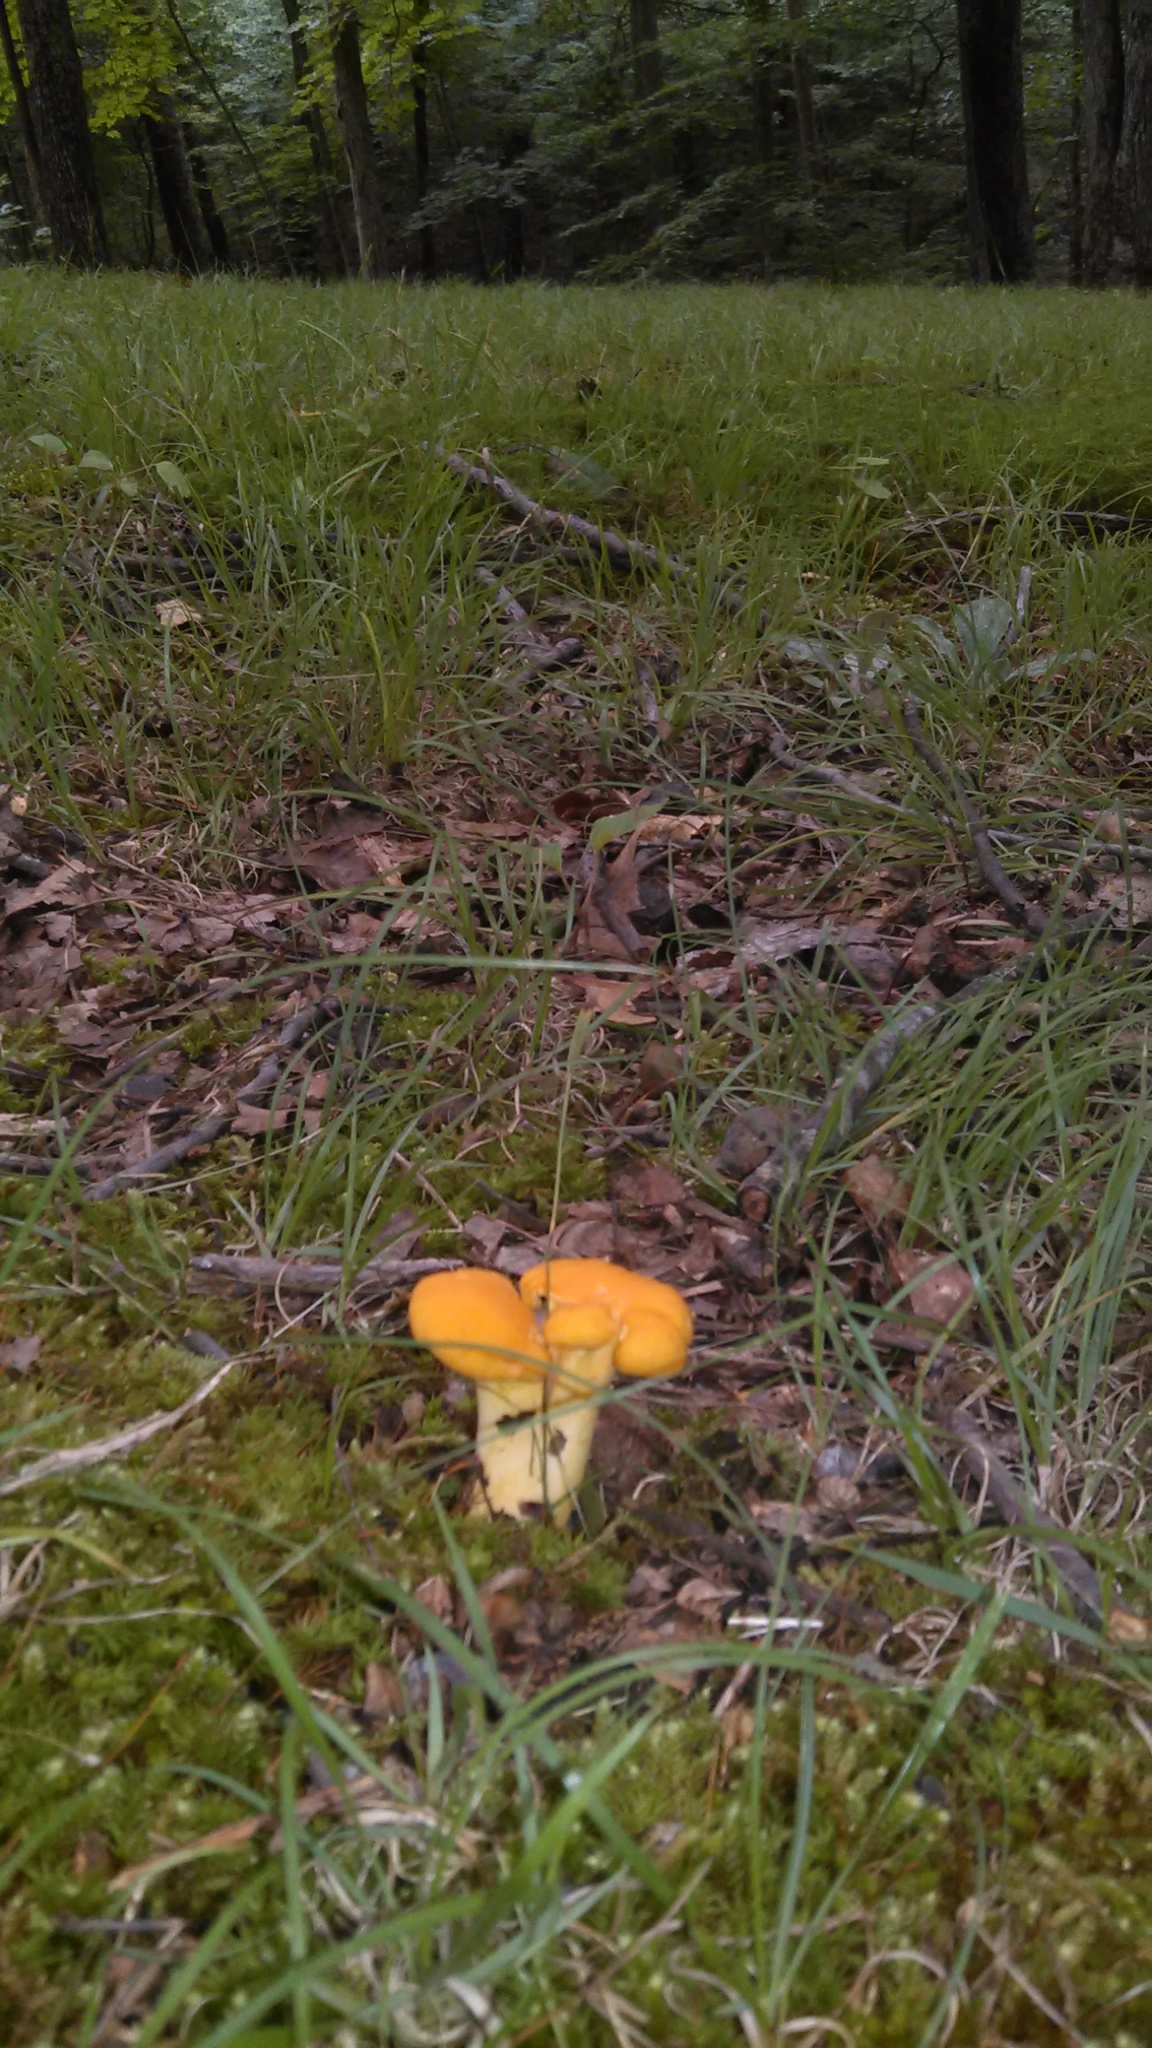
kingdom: Fungi
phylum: Basidiomycota
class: Agaricomycetes
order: Cantharellales
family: Hydnaceae
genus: Cantharellus
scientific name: Cantharellus flavolateritius
